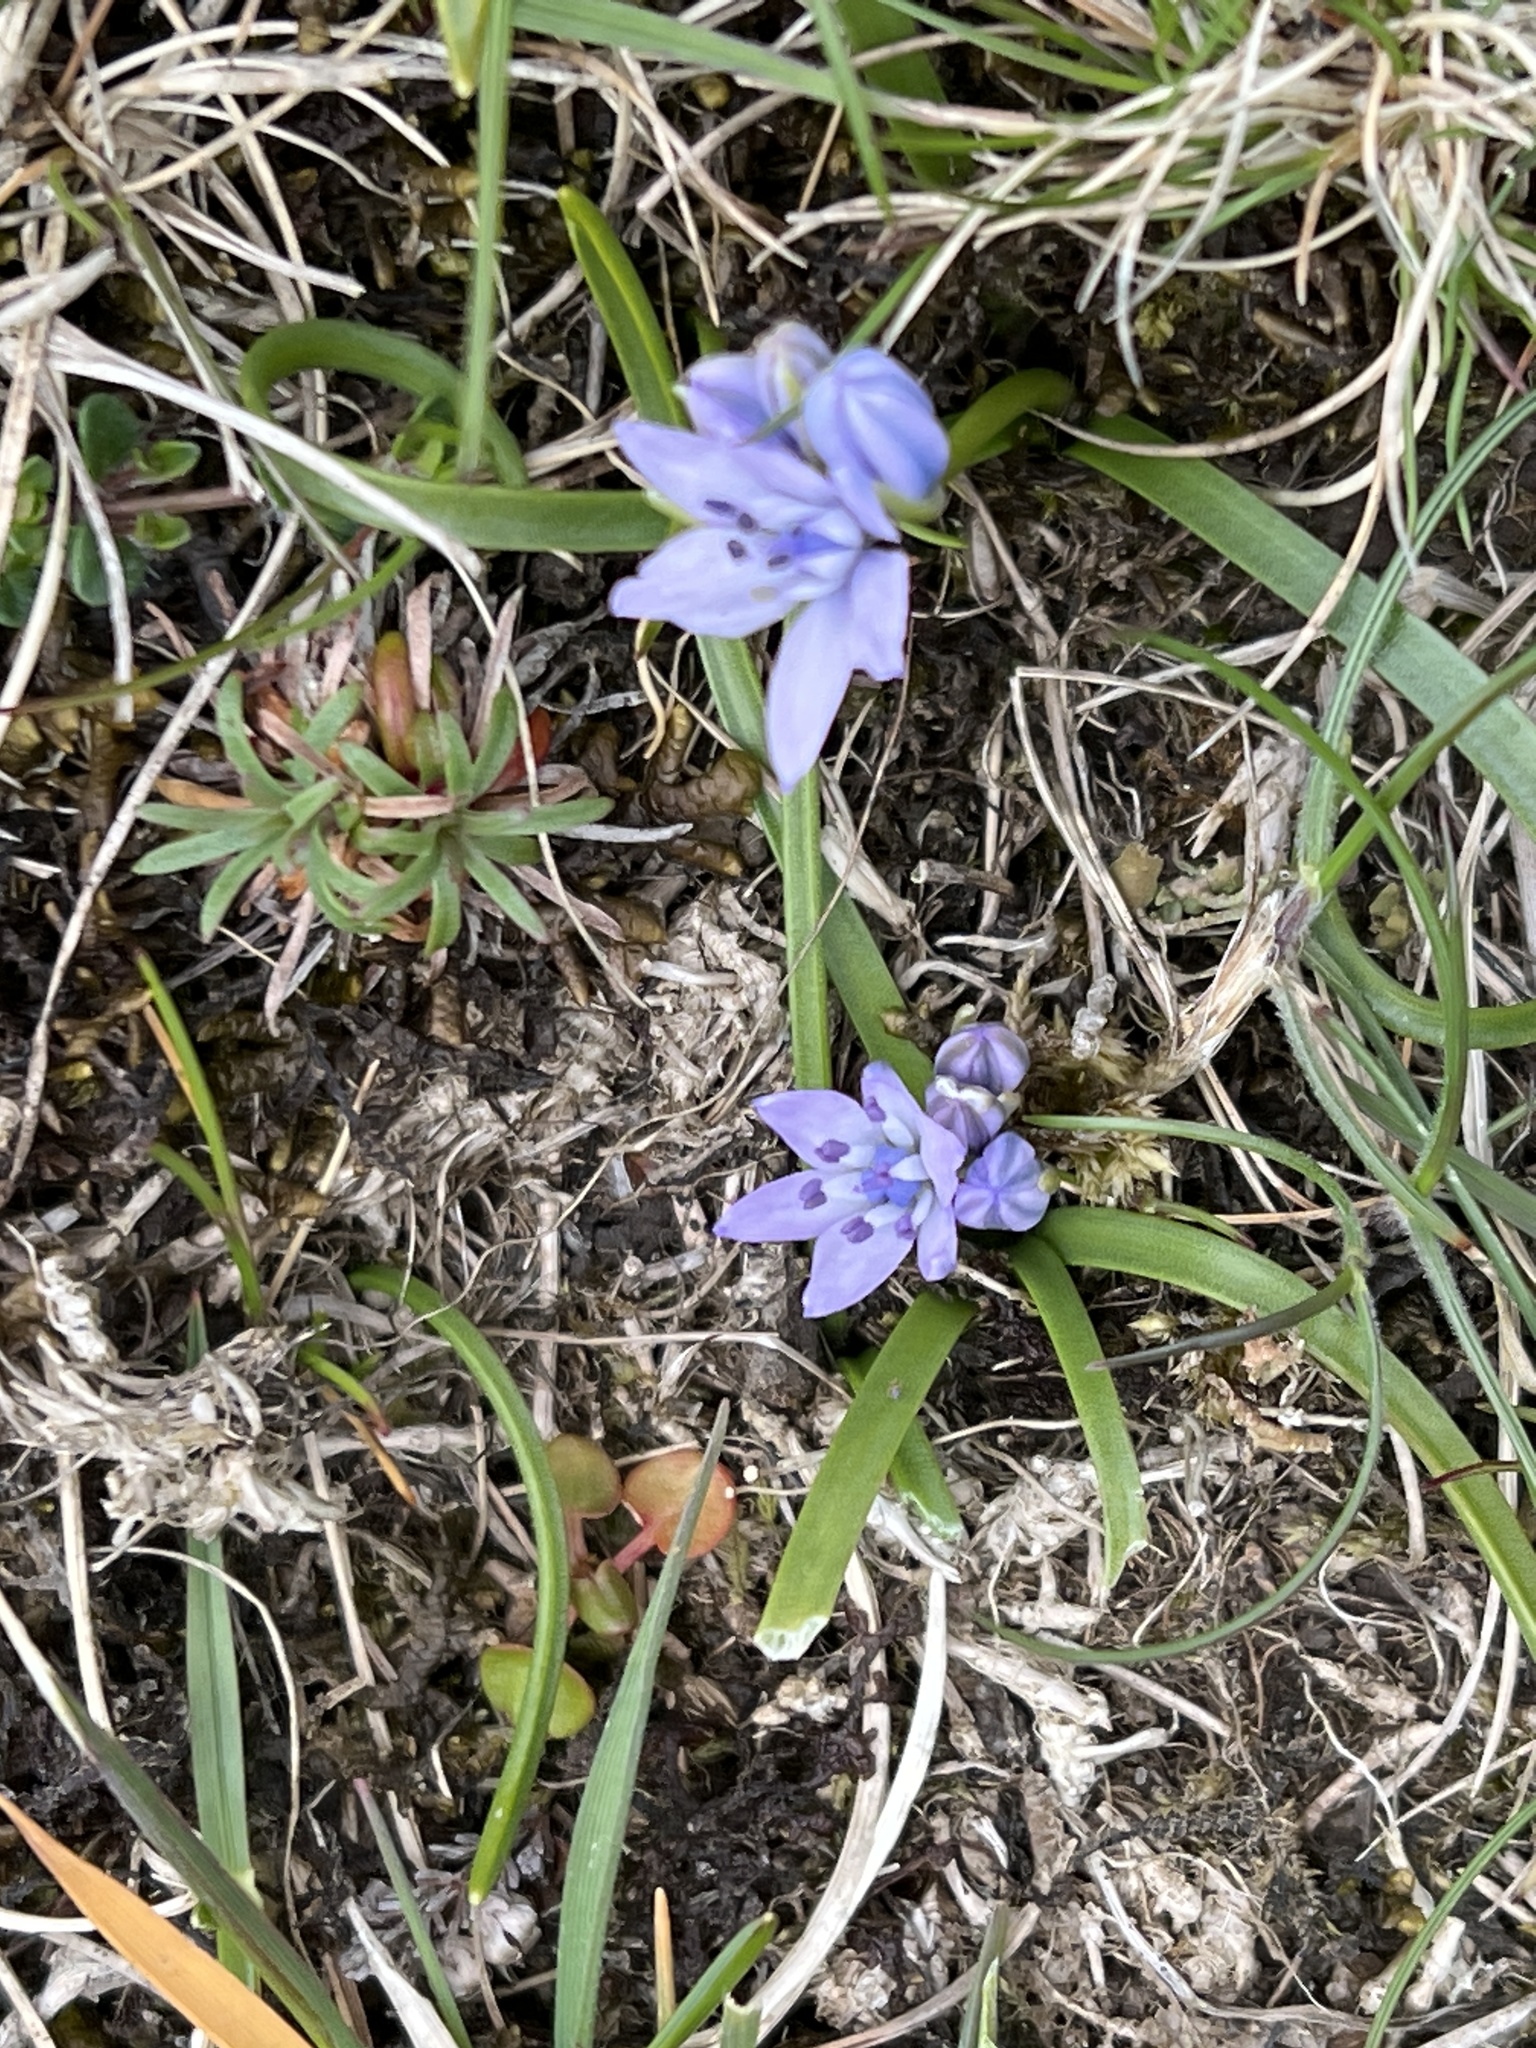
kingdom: Plantae
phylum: Tracheophyta
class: Liliopsida
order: Asparagales
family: Asparagaceae
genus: Scilla
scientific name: Scilla verna
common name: Spring squill
